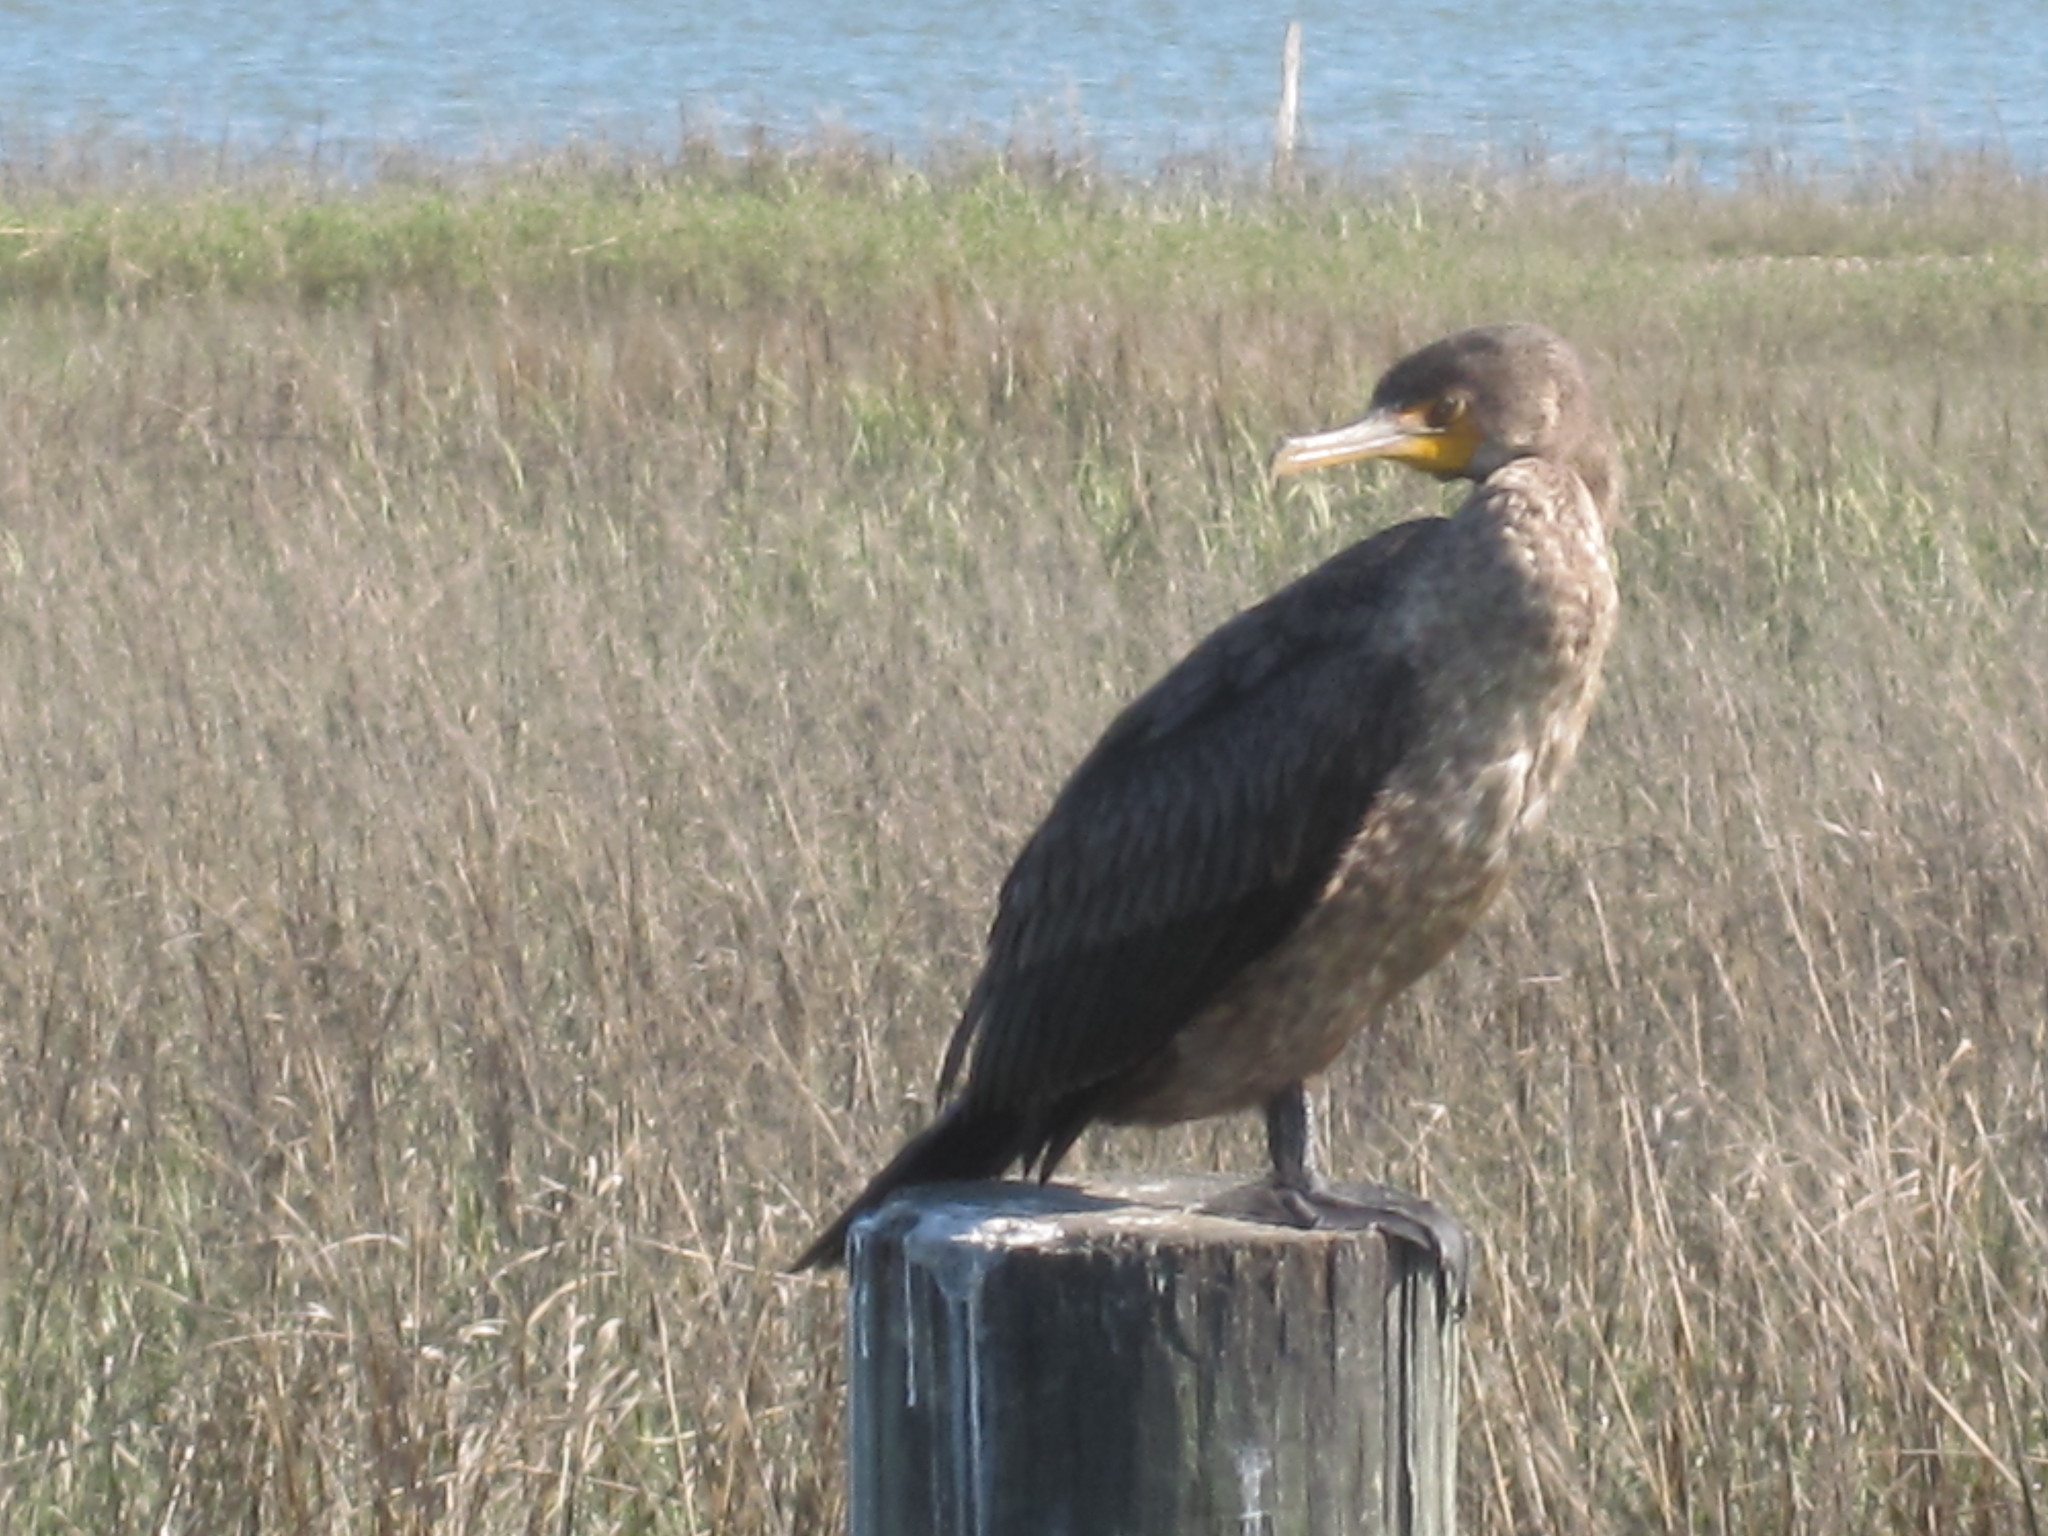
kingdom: Animalia
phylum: Chordata
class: Aves
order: Suliformes
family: Phalacrocoracidae
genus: Phalacrocorax
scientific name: Phalacrocorax auritus
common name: Double-crested cormorant
